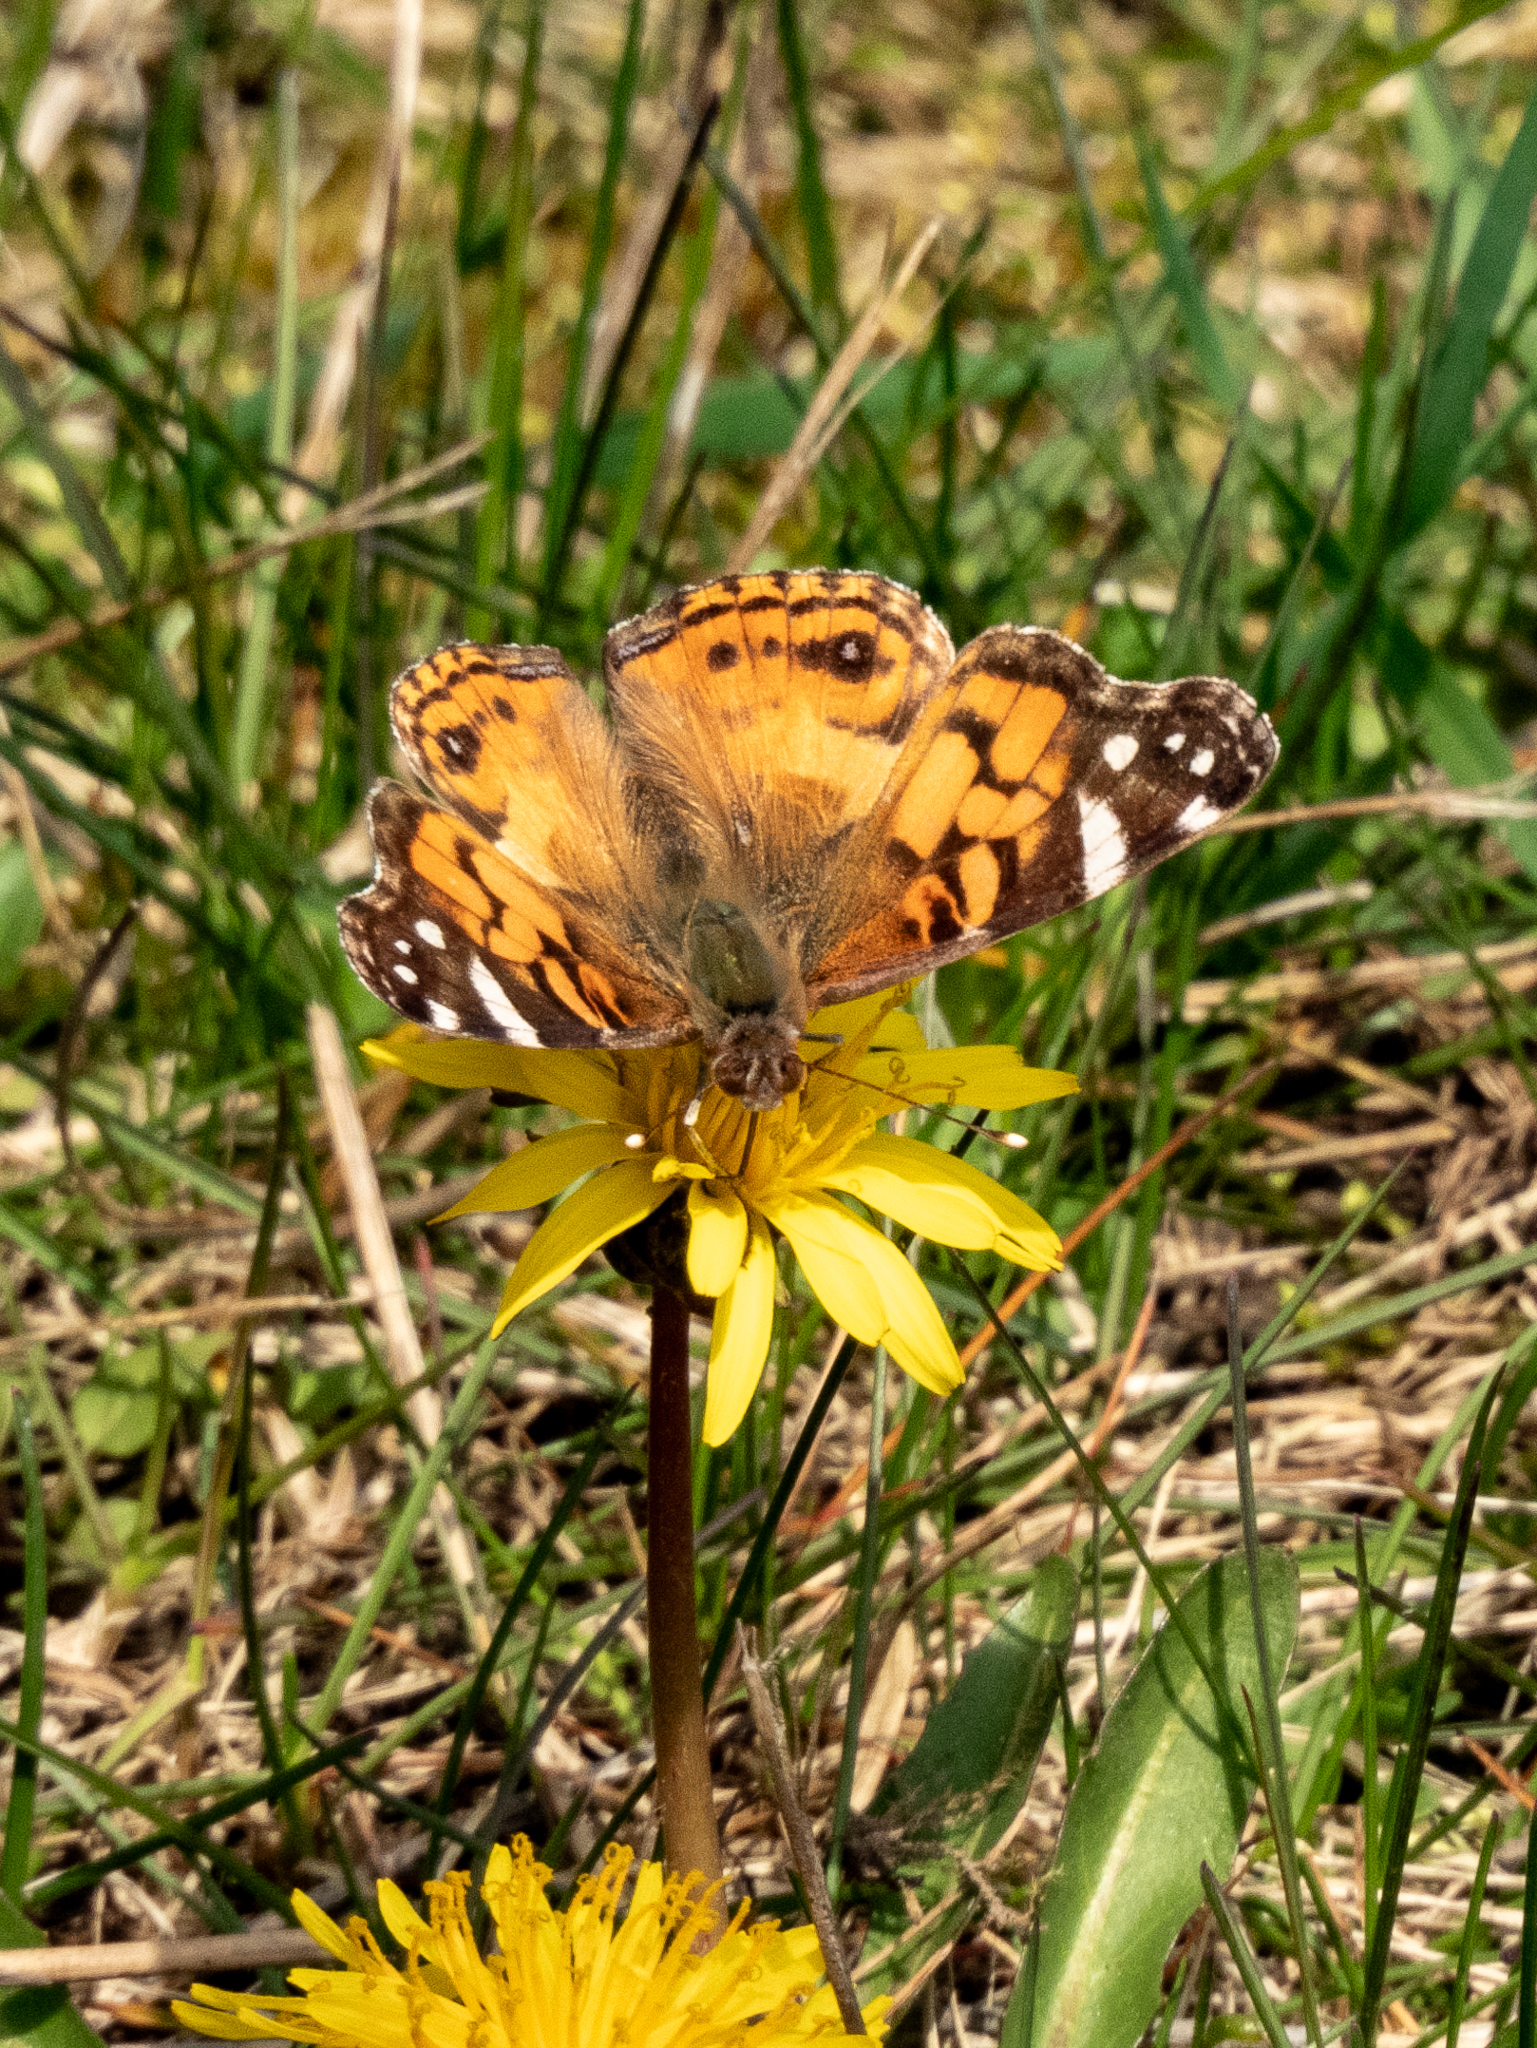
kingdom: Animalia
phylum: Arthropoda
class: Insecta
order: Lepidoptera
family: Nymphalidae
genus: Vanessa
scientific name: Vanessa virginiensis
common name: American lady
